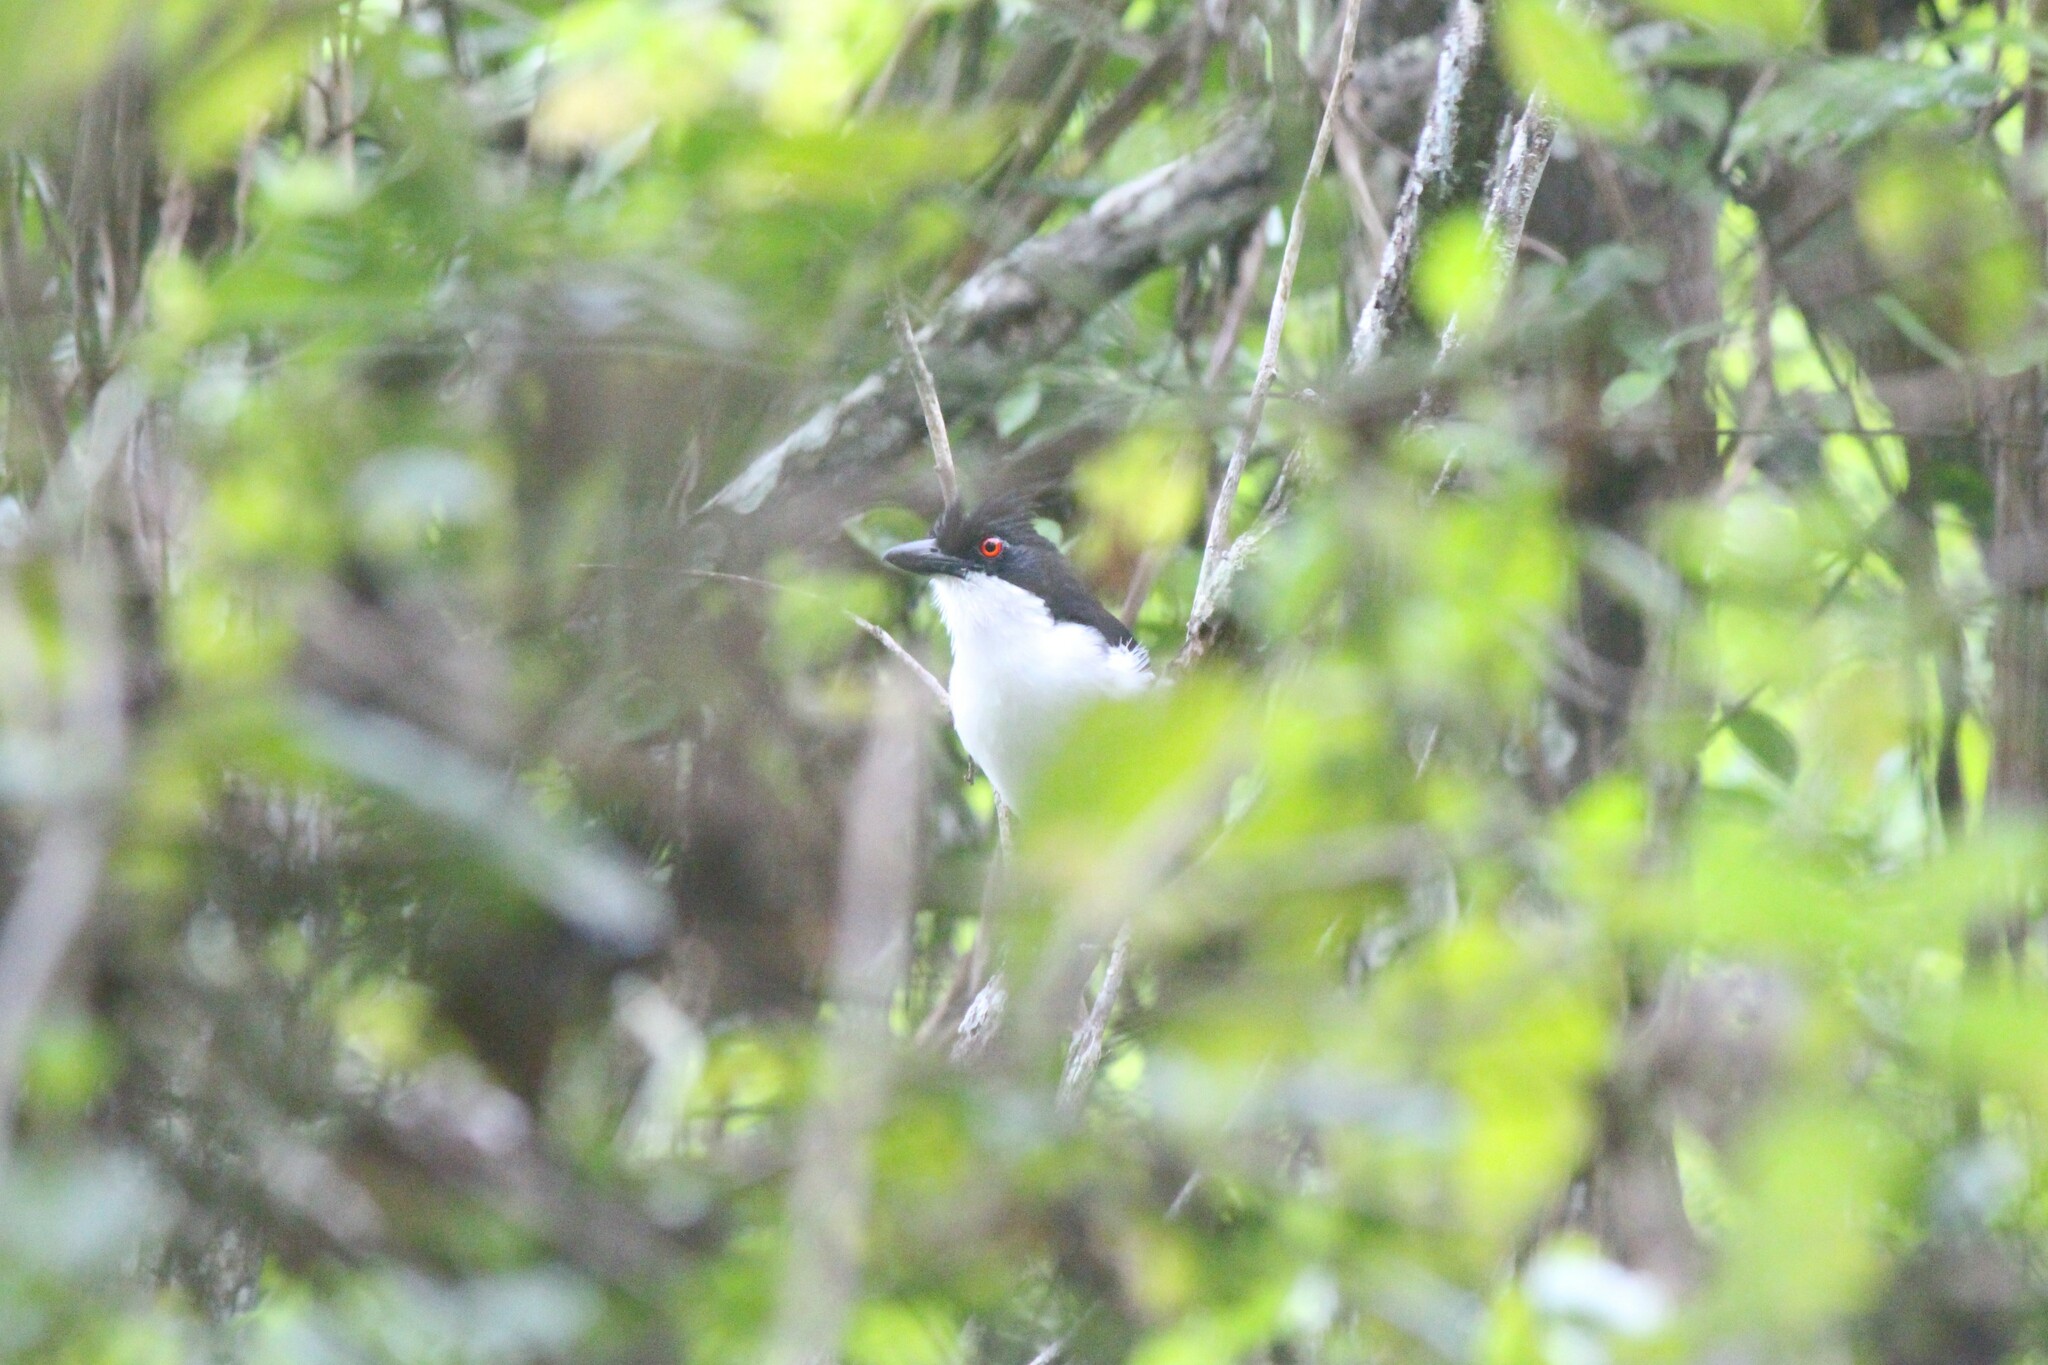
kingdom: Animalia
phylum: Chordata
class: Aves
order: Passeriformes
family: Thamnophilidae
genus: Taraba
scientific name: Taraba major
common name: Great antshrike
